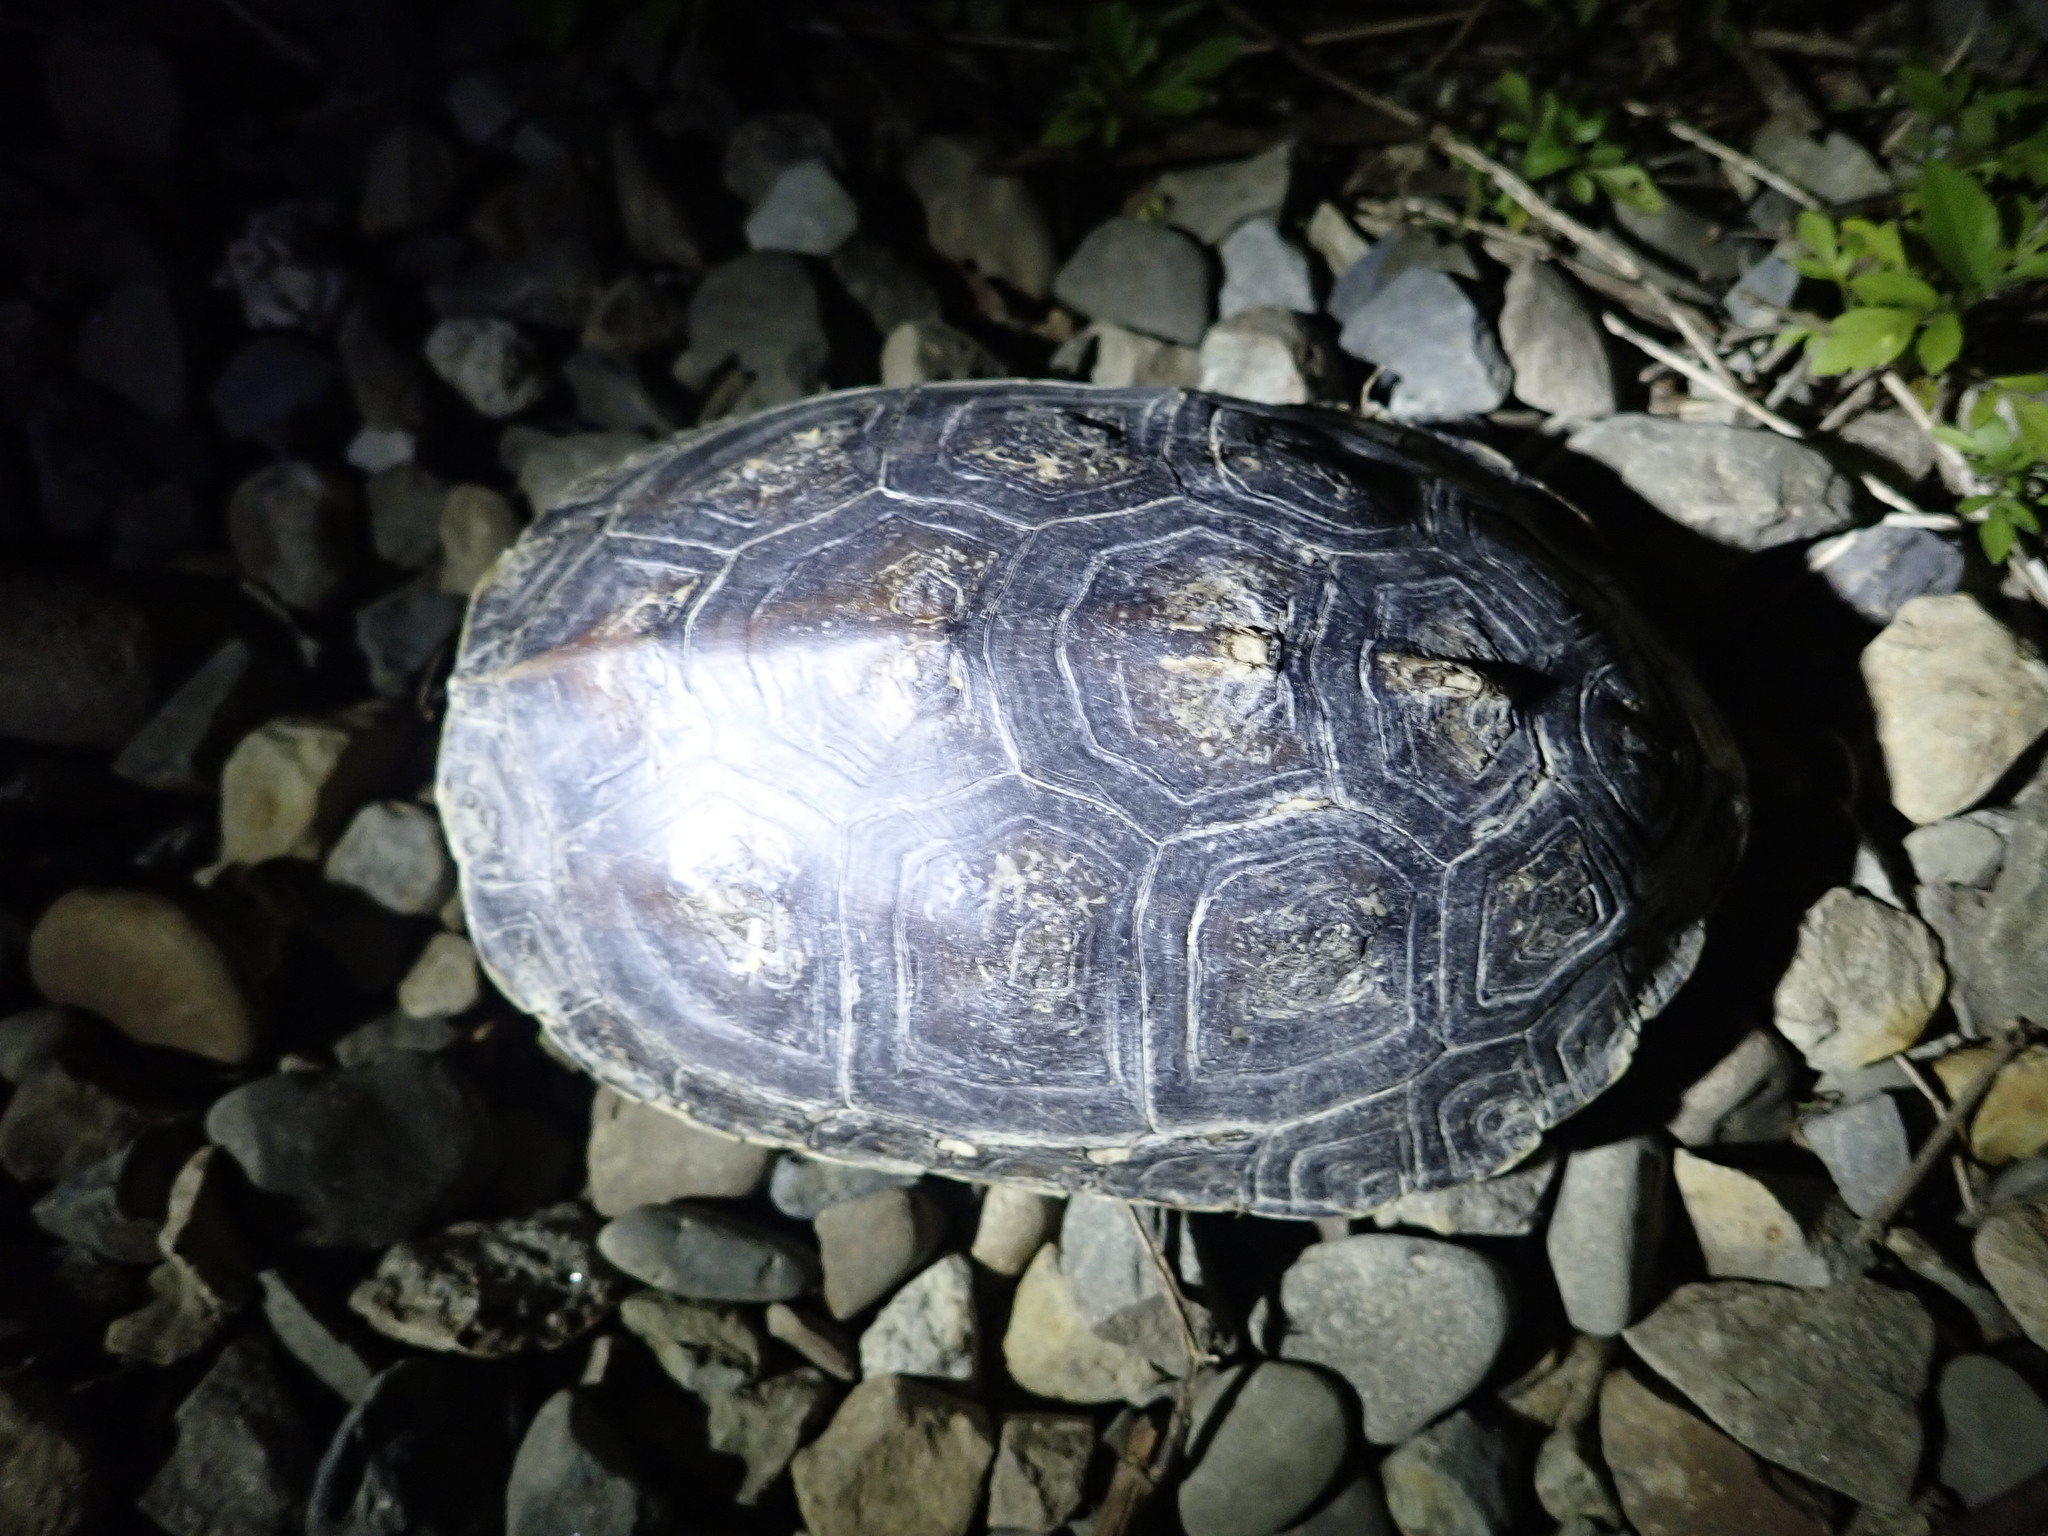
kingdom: Animalia
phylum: Chordata
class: Testudines
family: Geoemydidae
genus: Mauremys
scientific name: Mauremys sinensis
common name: Chinese stripe-necked turtle
